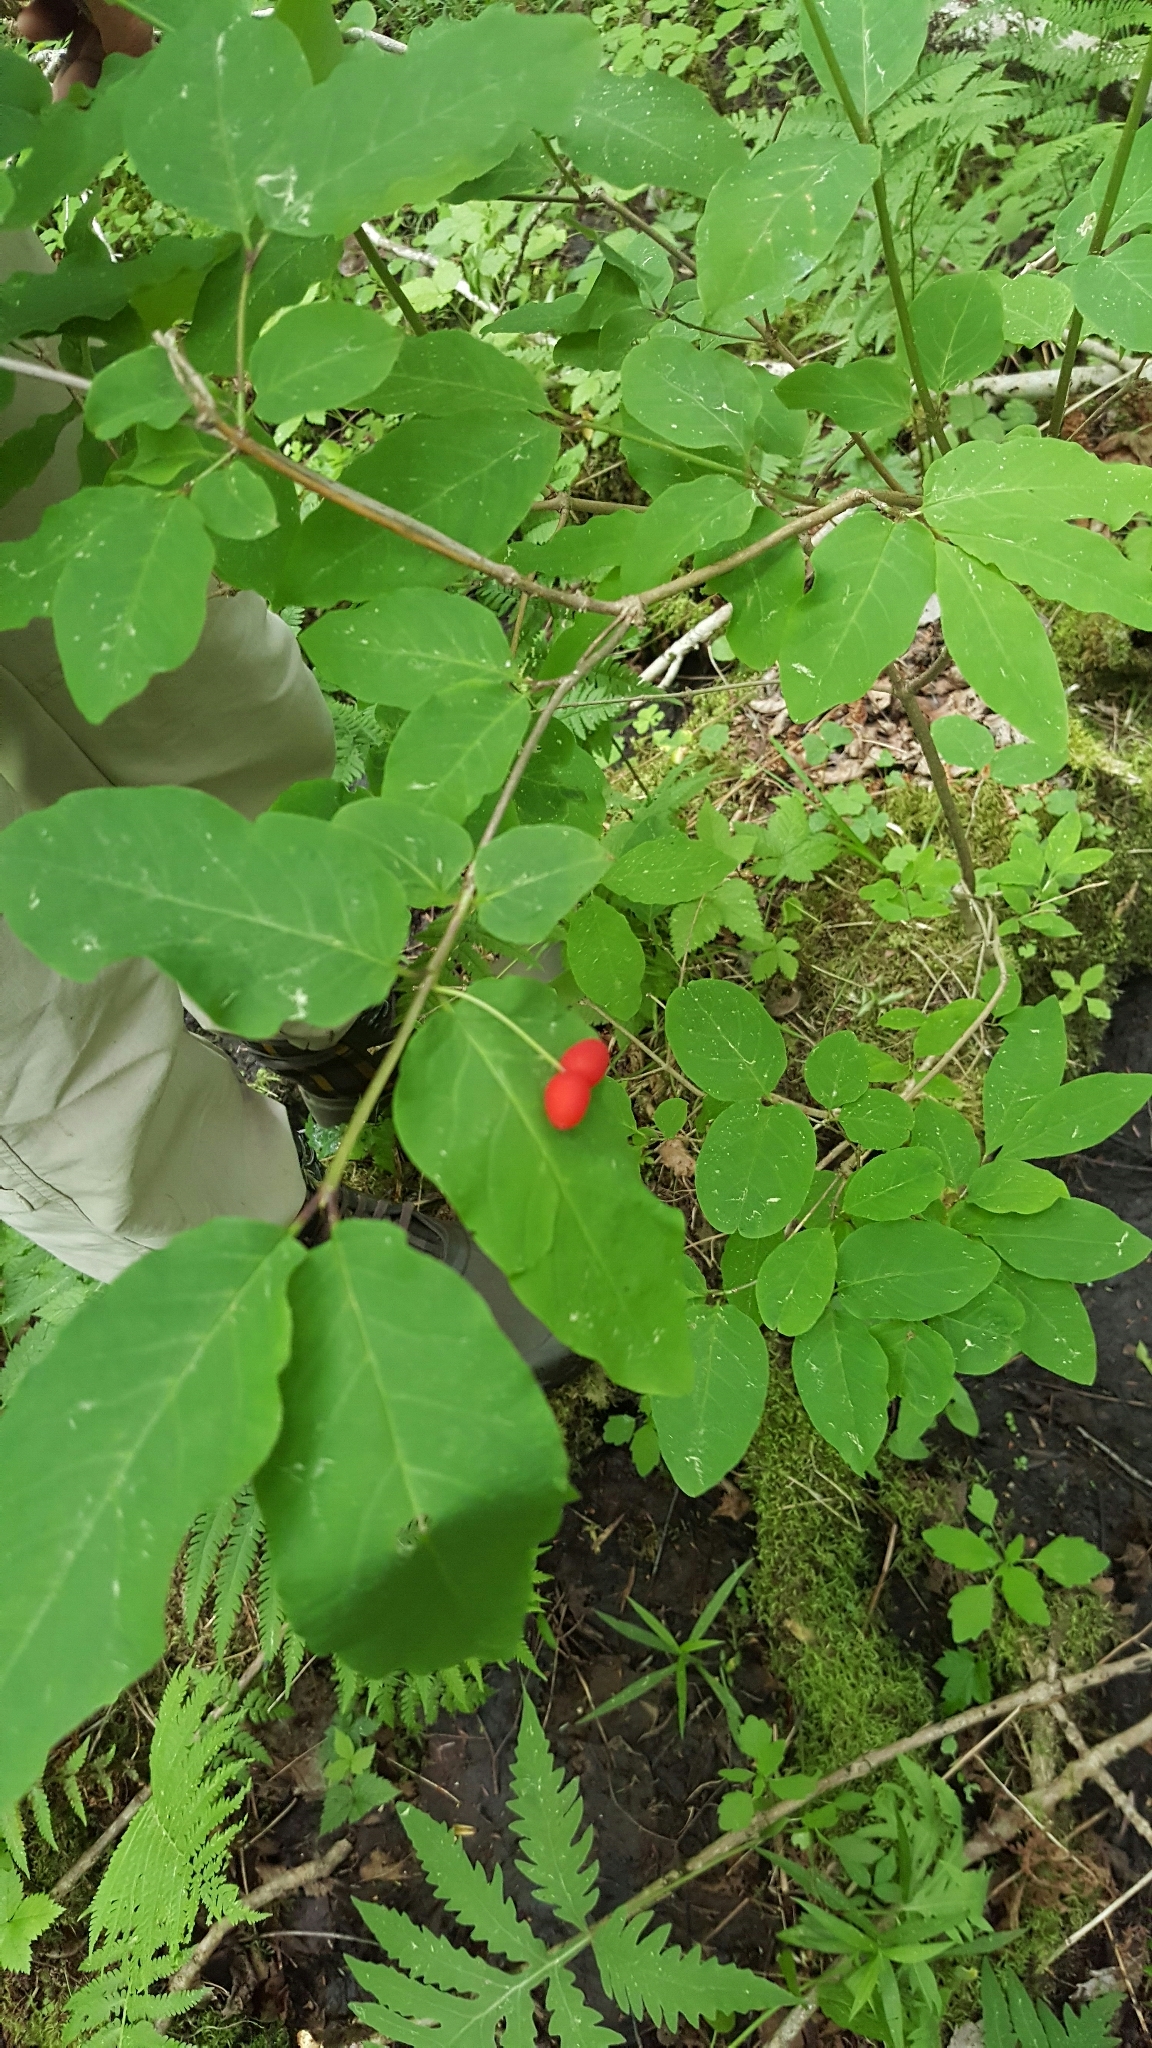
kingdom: Plantae
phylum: Tracheophyta
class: Magnoliopsida
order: Dipsacales
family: Caprifoliaceae
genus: Lonicera
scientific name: Lonicera canadensis
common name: American fly-honeysuckle
